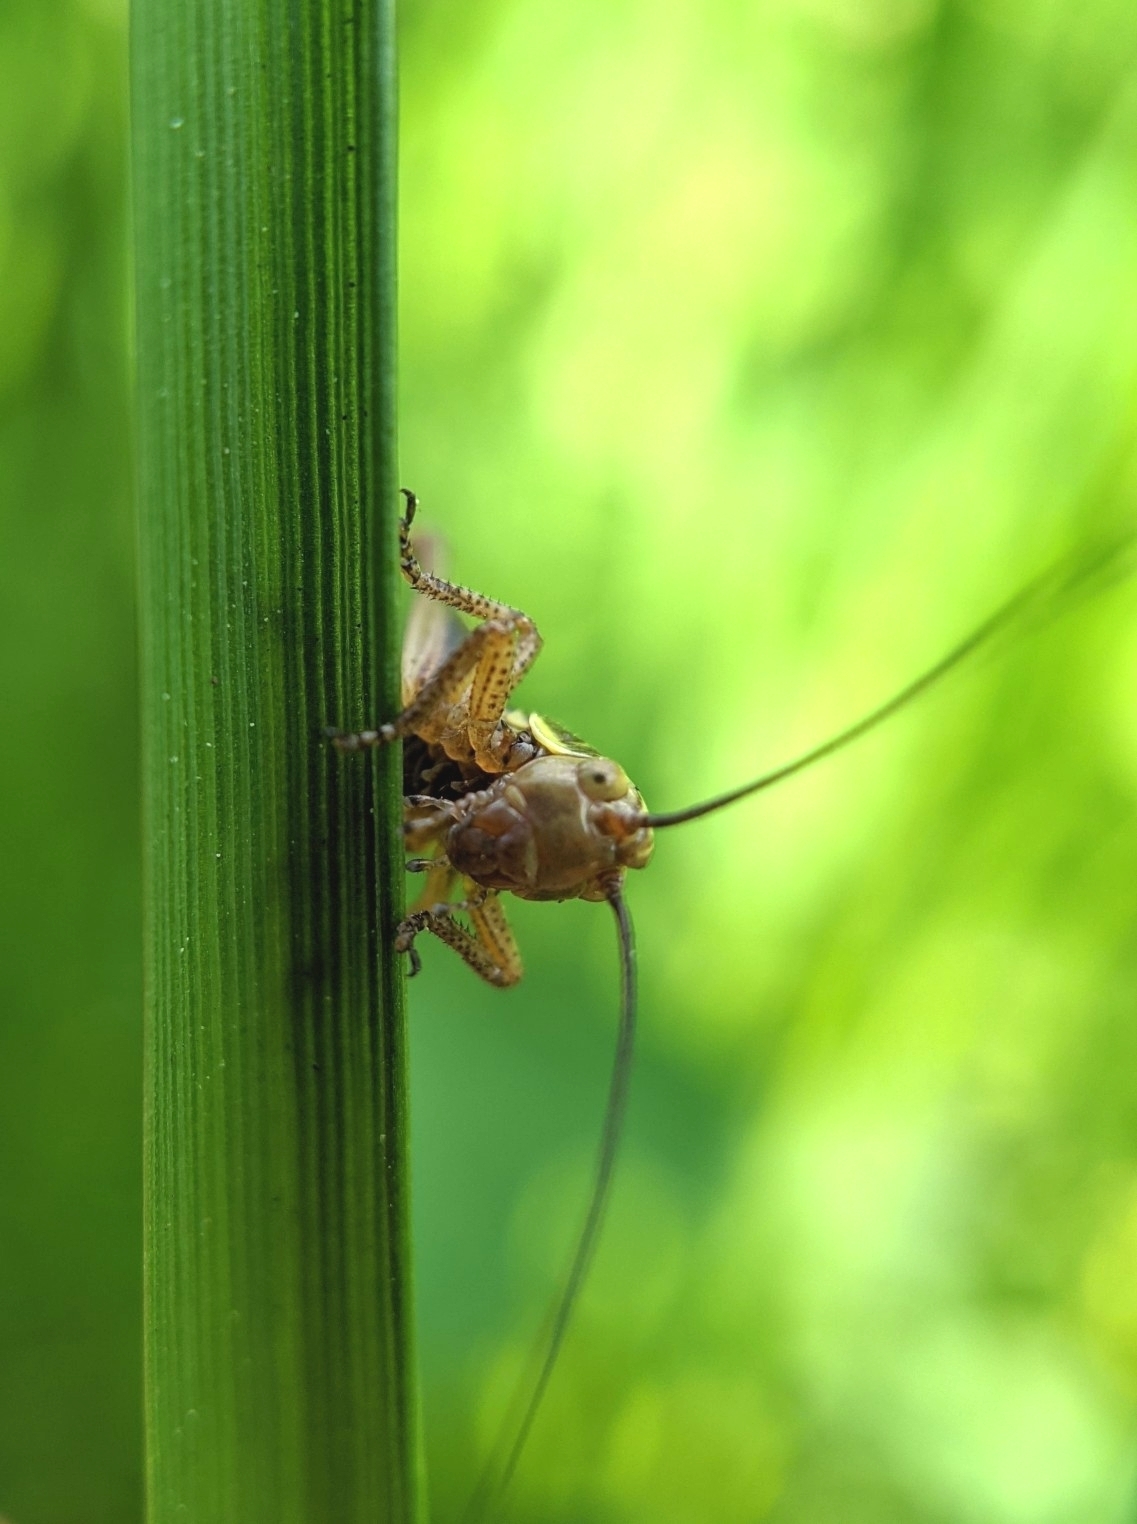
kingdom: Animalia
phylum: Arthropoda
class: Insecta
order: Orthoptera
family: Tettigoniidae
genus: Roeseliana
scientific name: Roeseliana roeselii
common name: Roesel's bush cricket
